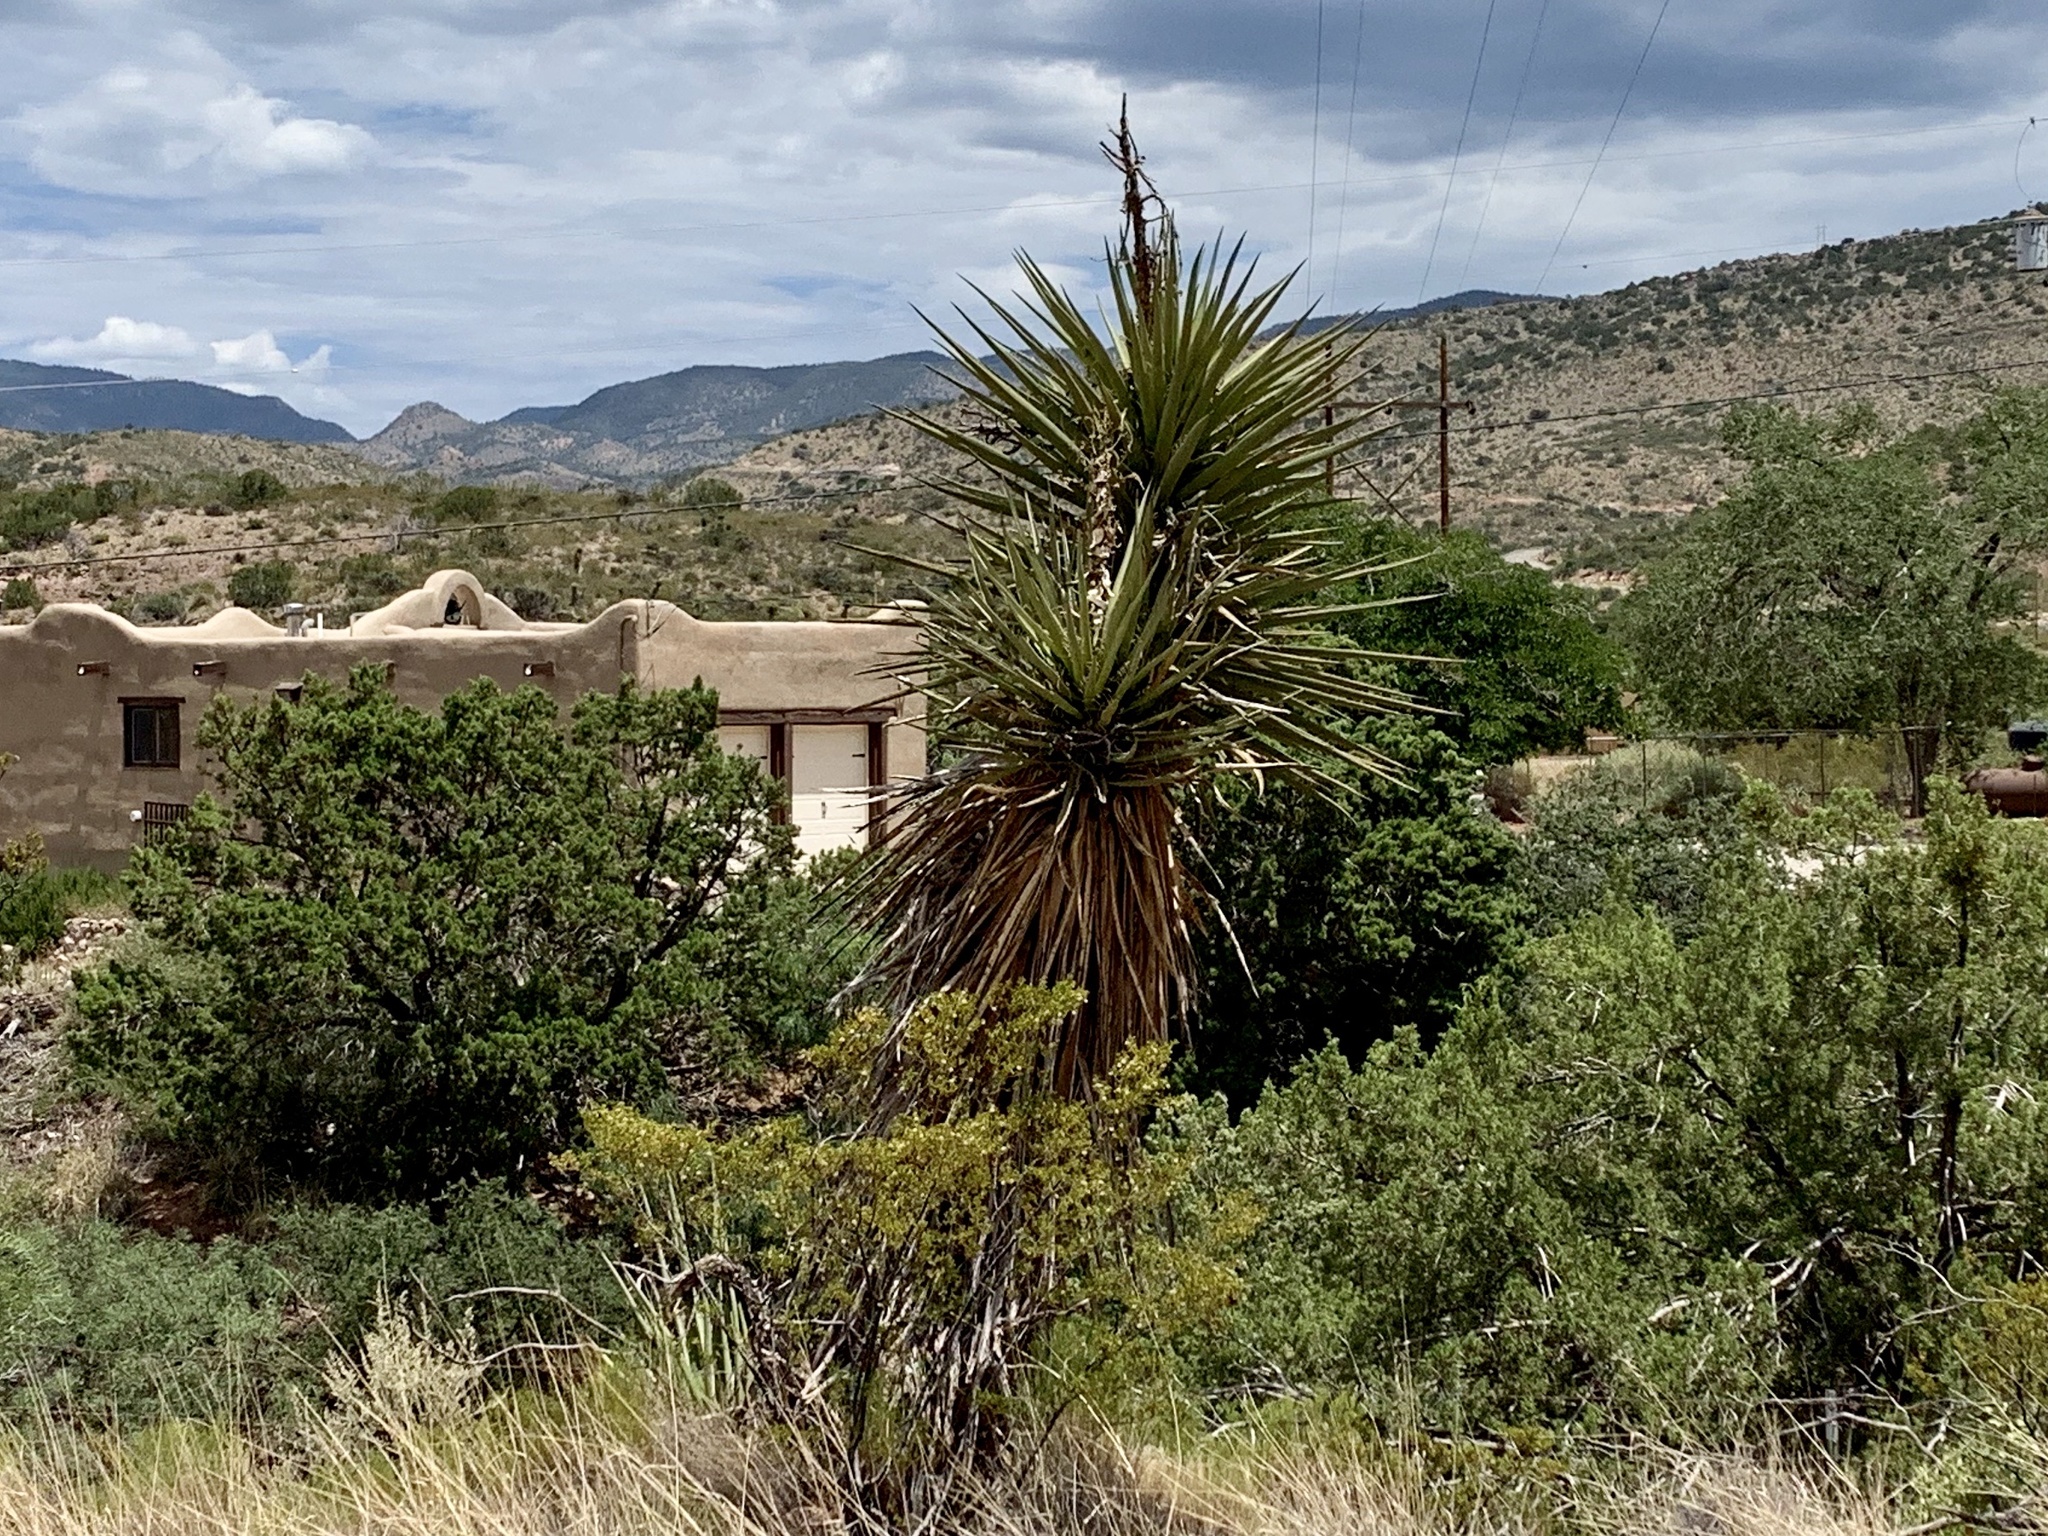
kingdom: Plantae
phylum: Tracheophyta
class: Liliopsida
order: Asparagales
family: Asparagaceae
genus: Yucca
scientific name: Yucca treculiana
